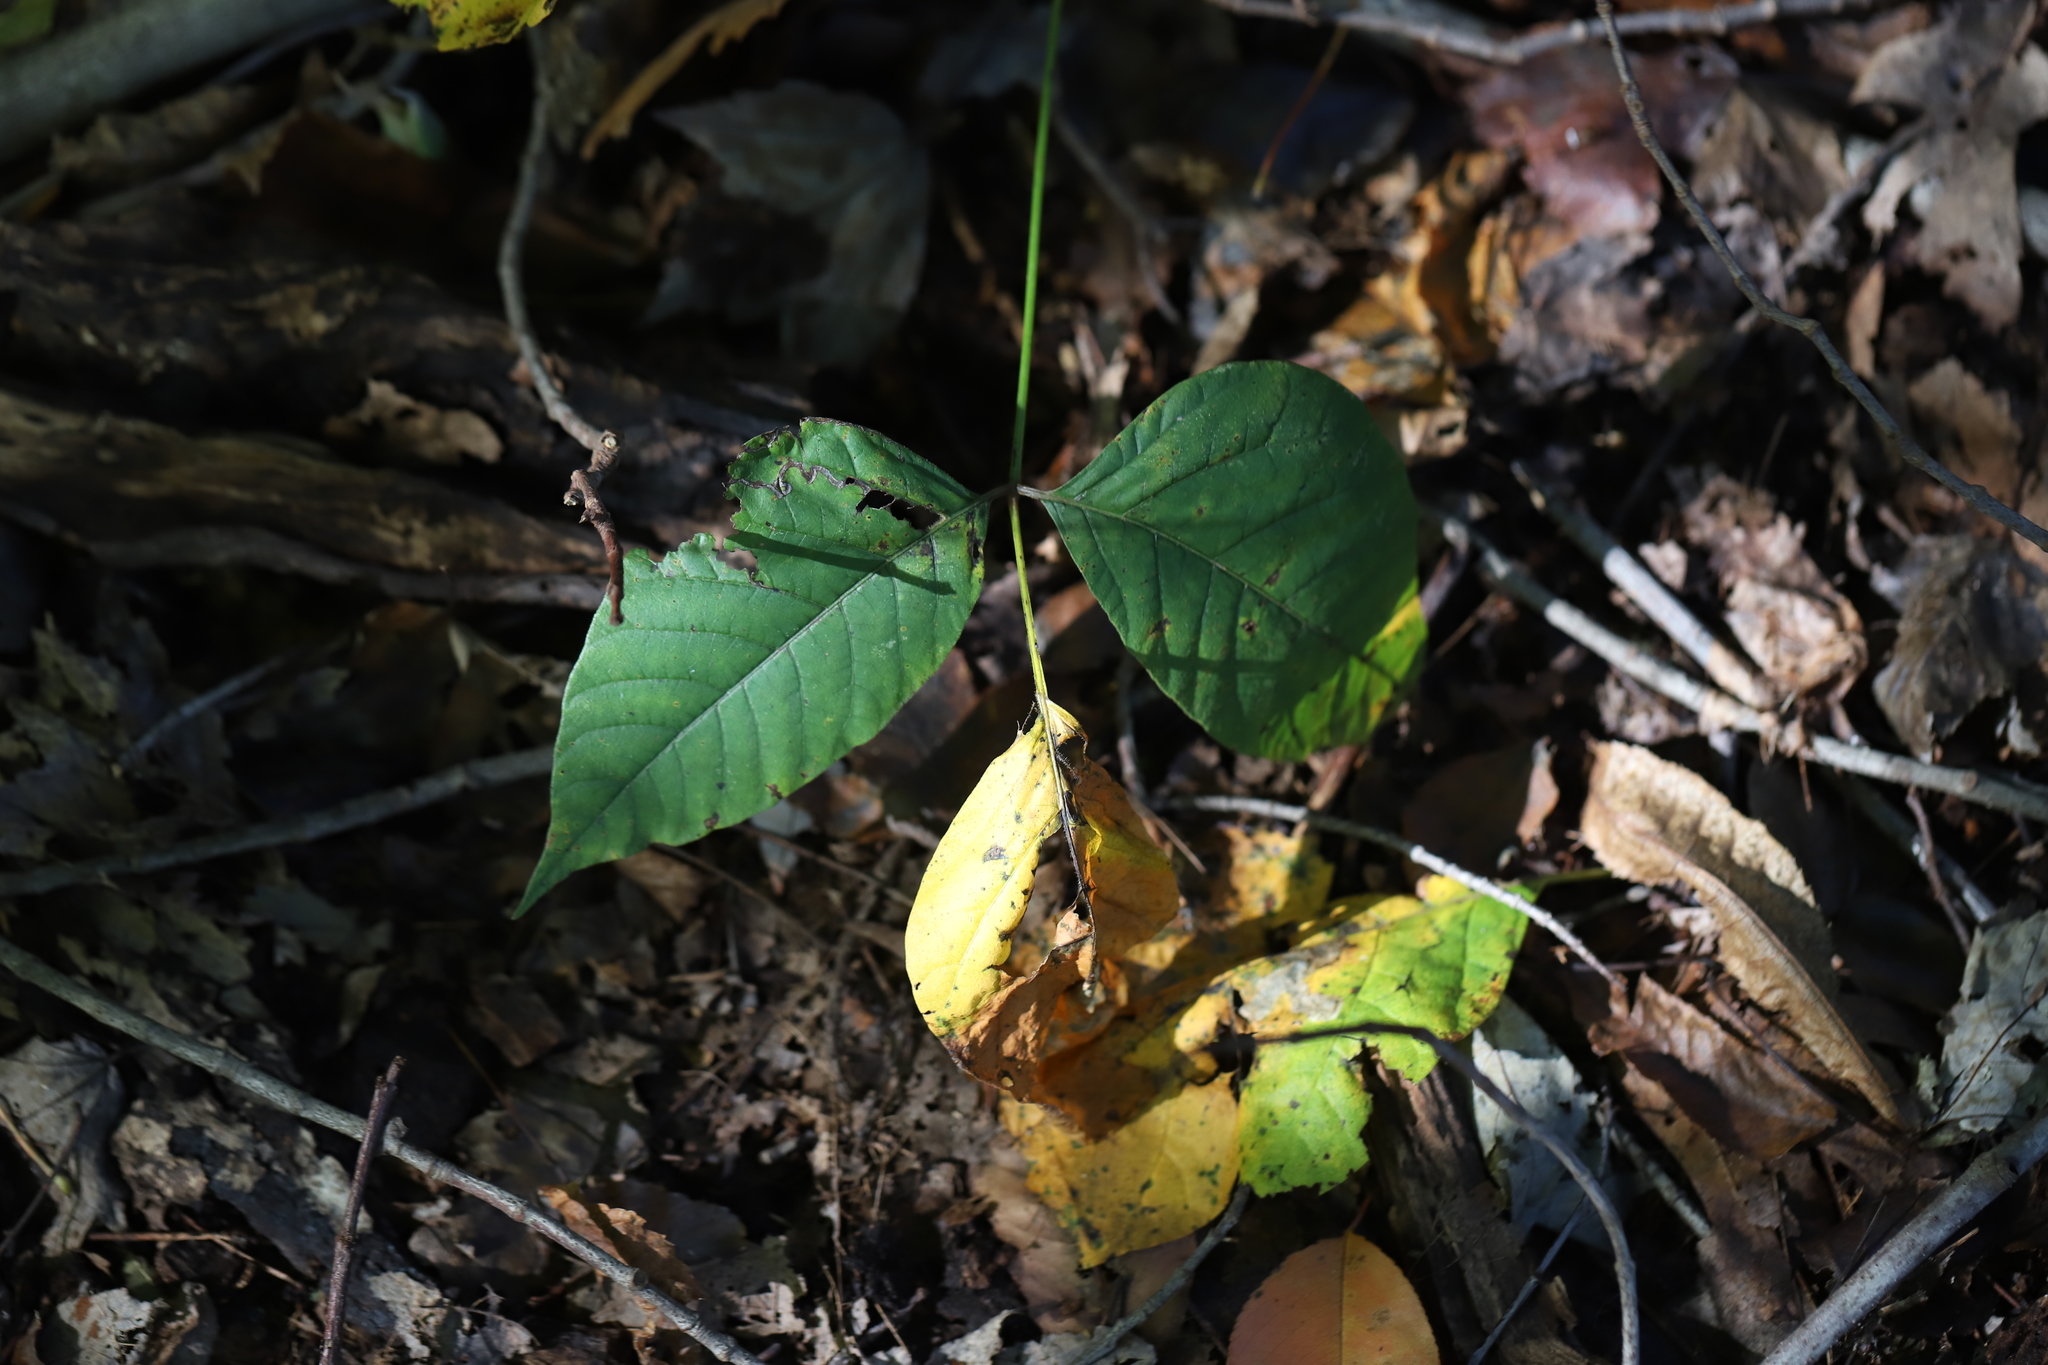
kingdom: Plantae
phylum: Tracheophyta
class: Magnoliopsida
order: Sapindales
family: Anacardiaceae
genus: Toxicodendron
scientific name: Toxicodendron radicans
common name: Poison ivy
